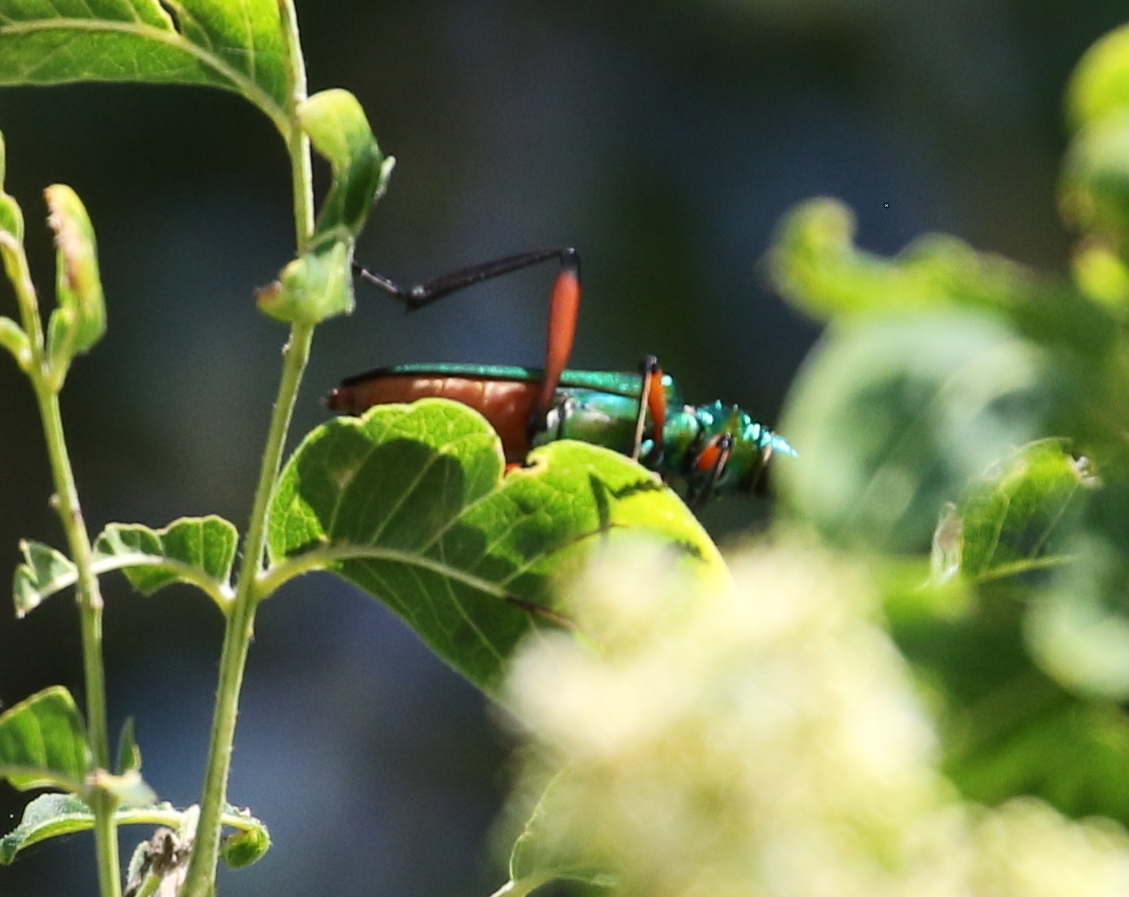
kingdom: Animalia
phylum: Arthropoda
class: Insecta
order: Coleoptera
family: Cerambycidae
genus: Plinthocoelium
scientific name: Plinthocoelium suaveolens
